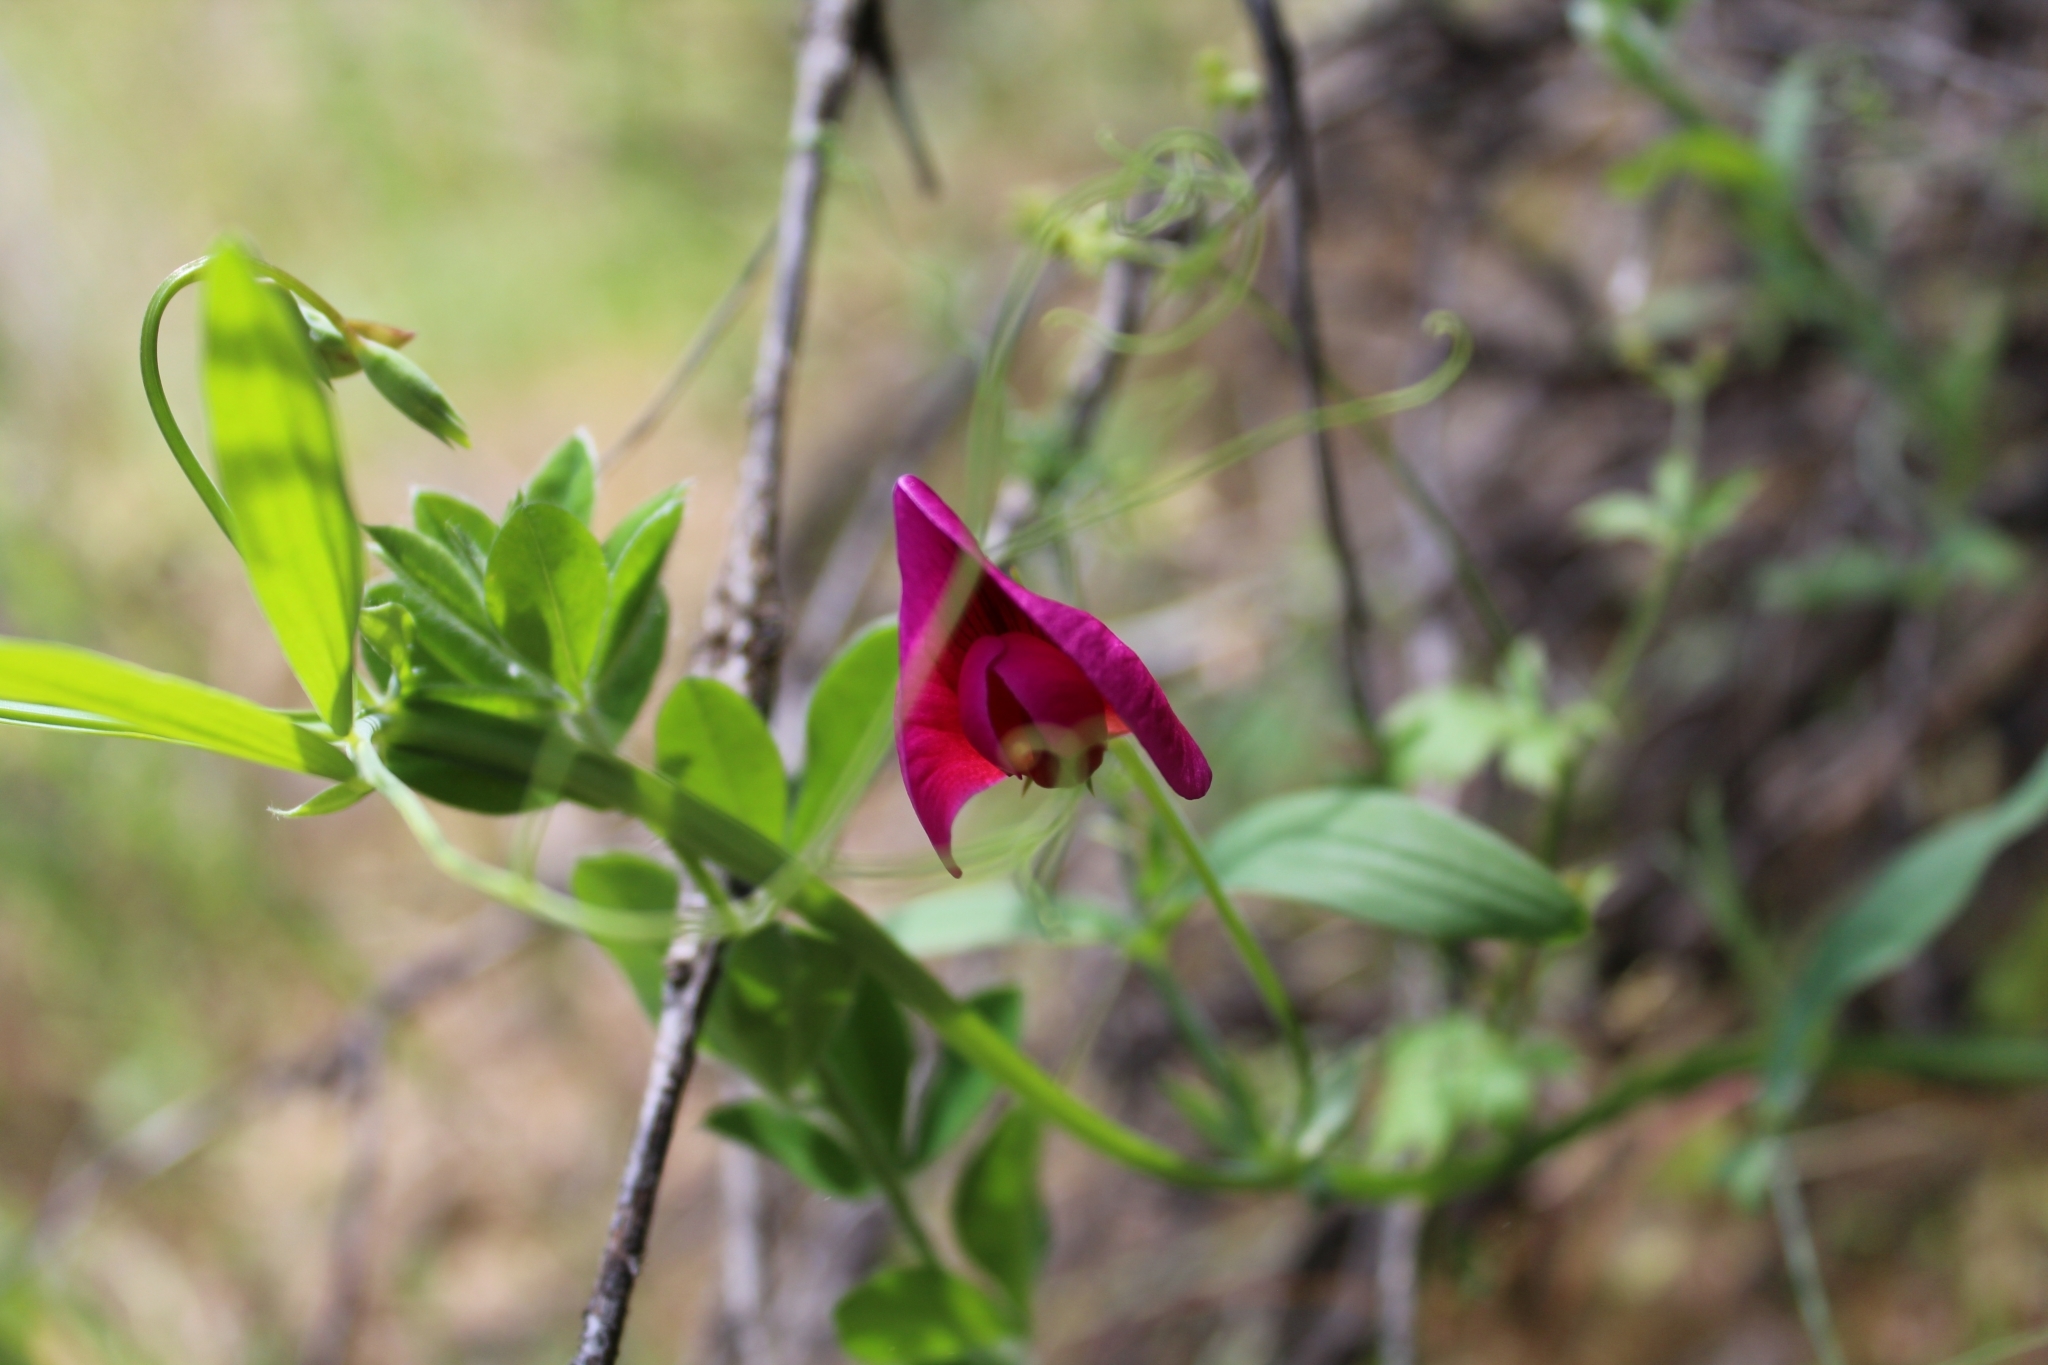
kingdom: Plantae
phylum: Tracheophyta
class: Magnoliopsida
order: Fabales
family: Fabaceae
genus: Lathyrus
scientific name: Lathyrus tingitanus
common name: Tangier pea
